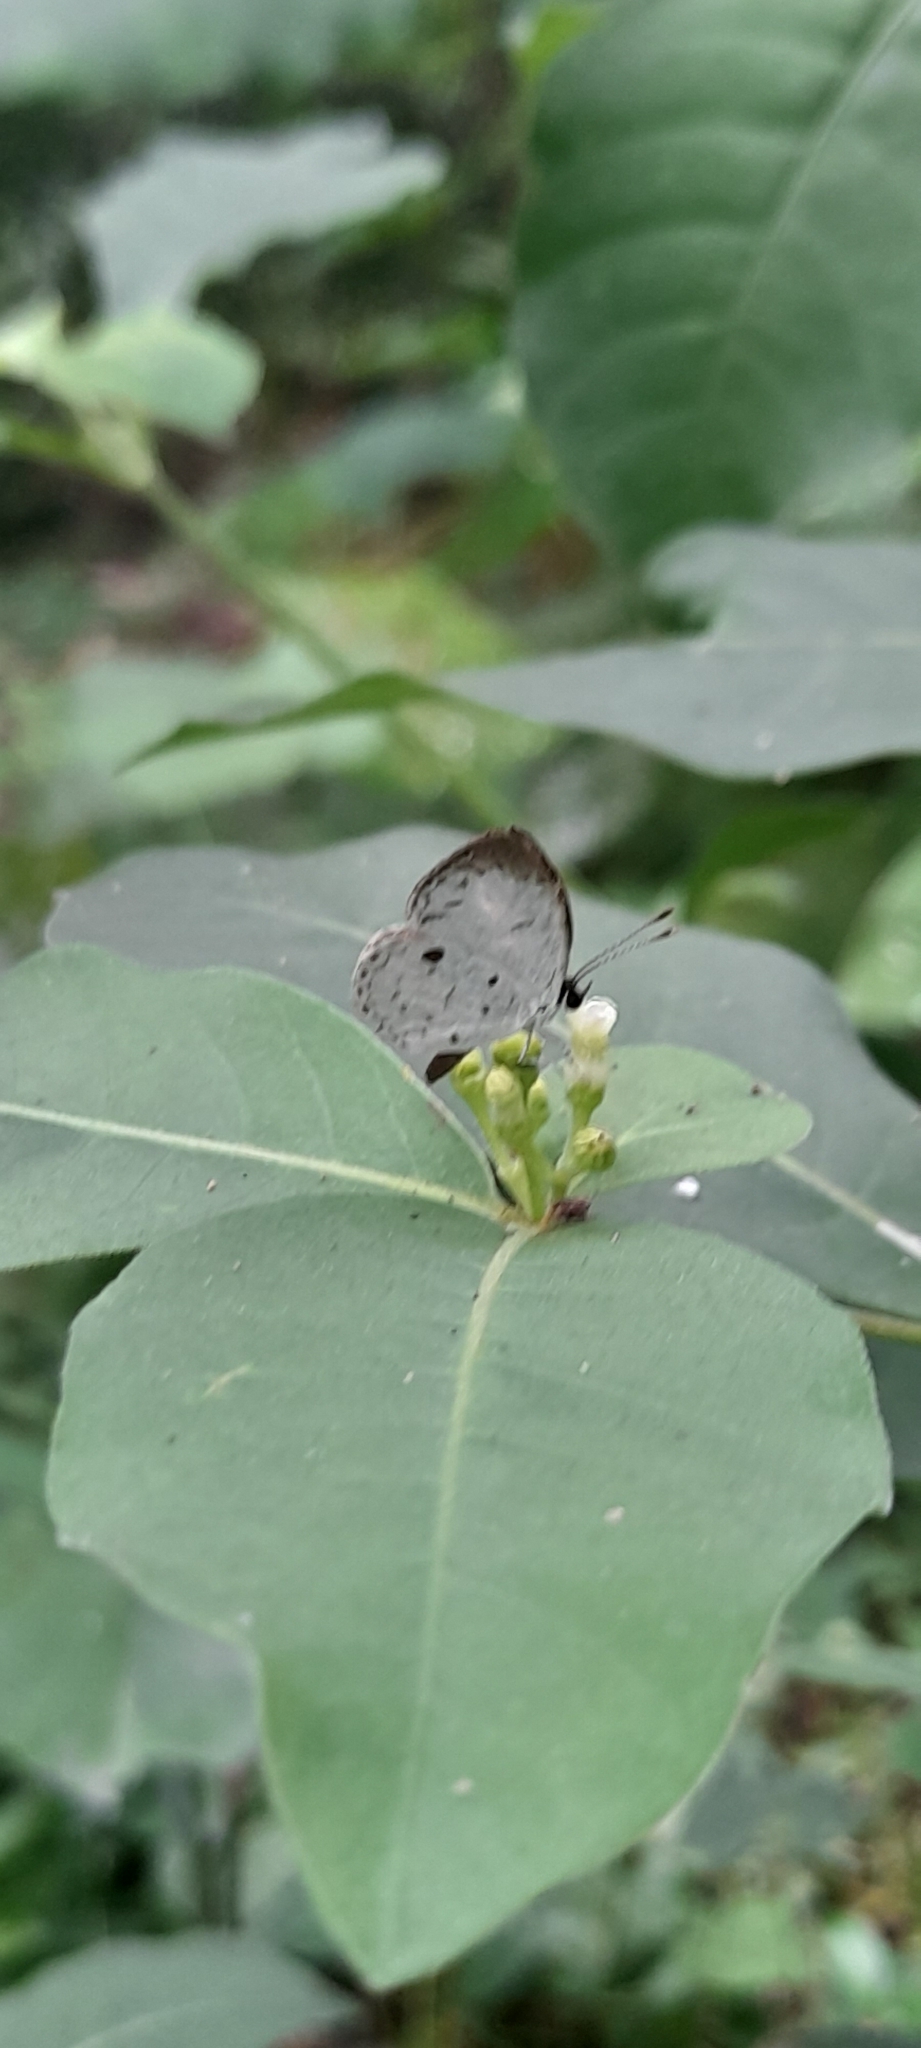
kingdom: Animalia
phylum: Arthropoda
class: Insecta
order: Lepidoptera
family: Lycaenidae
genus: Neopithecops
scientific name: Neopithecops zalmora
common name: Quaker
